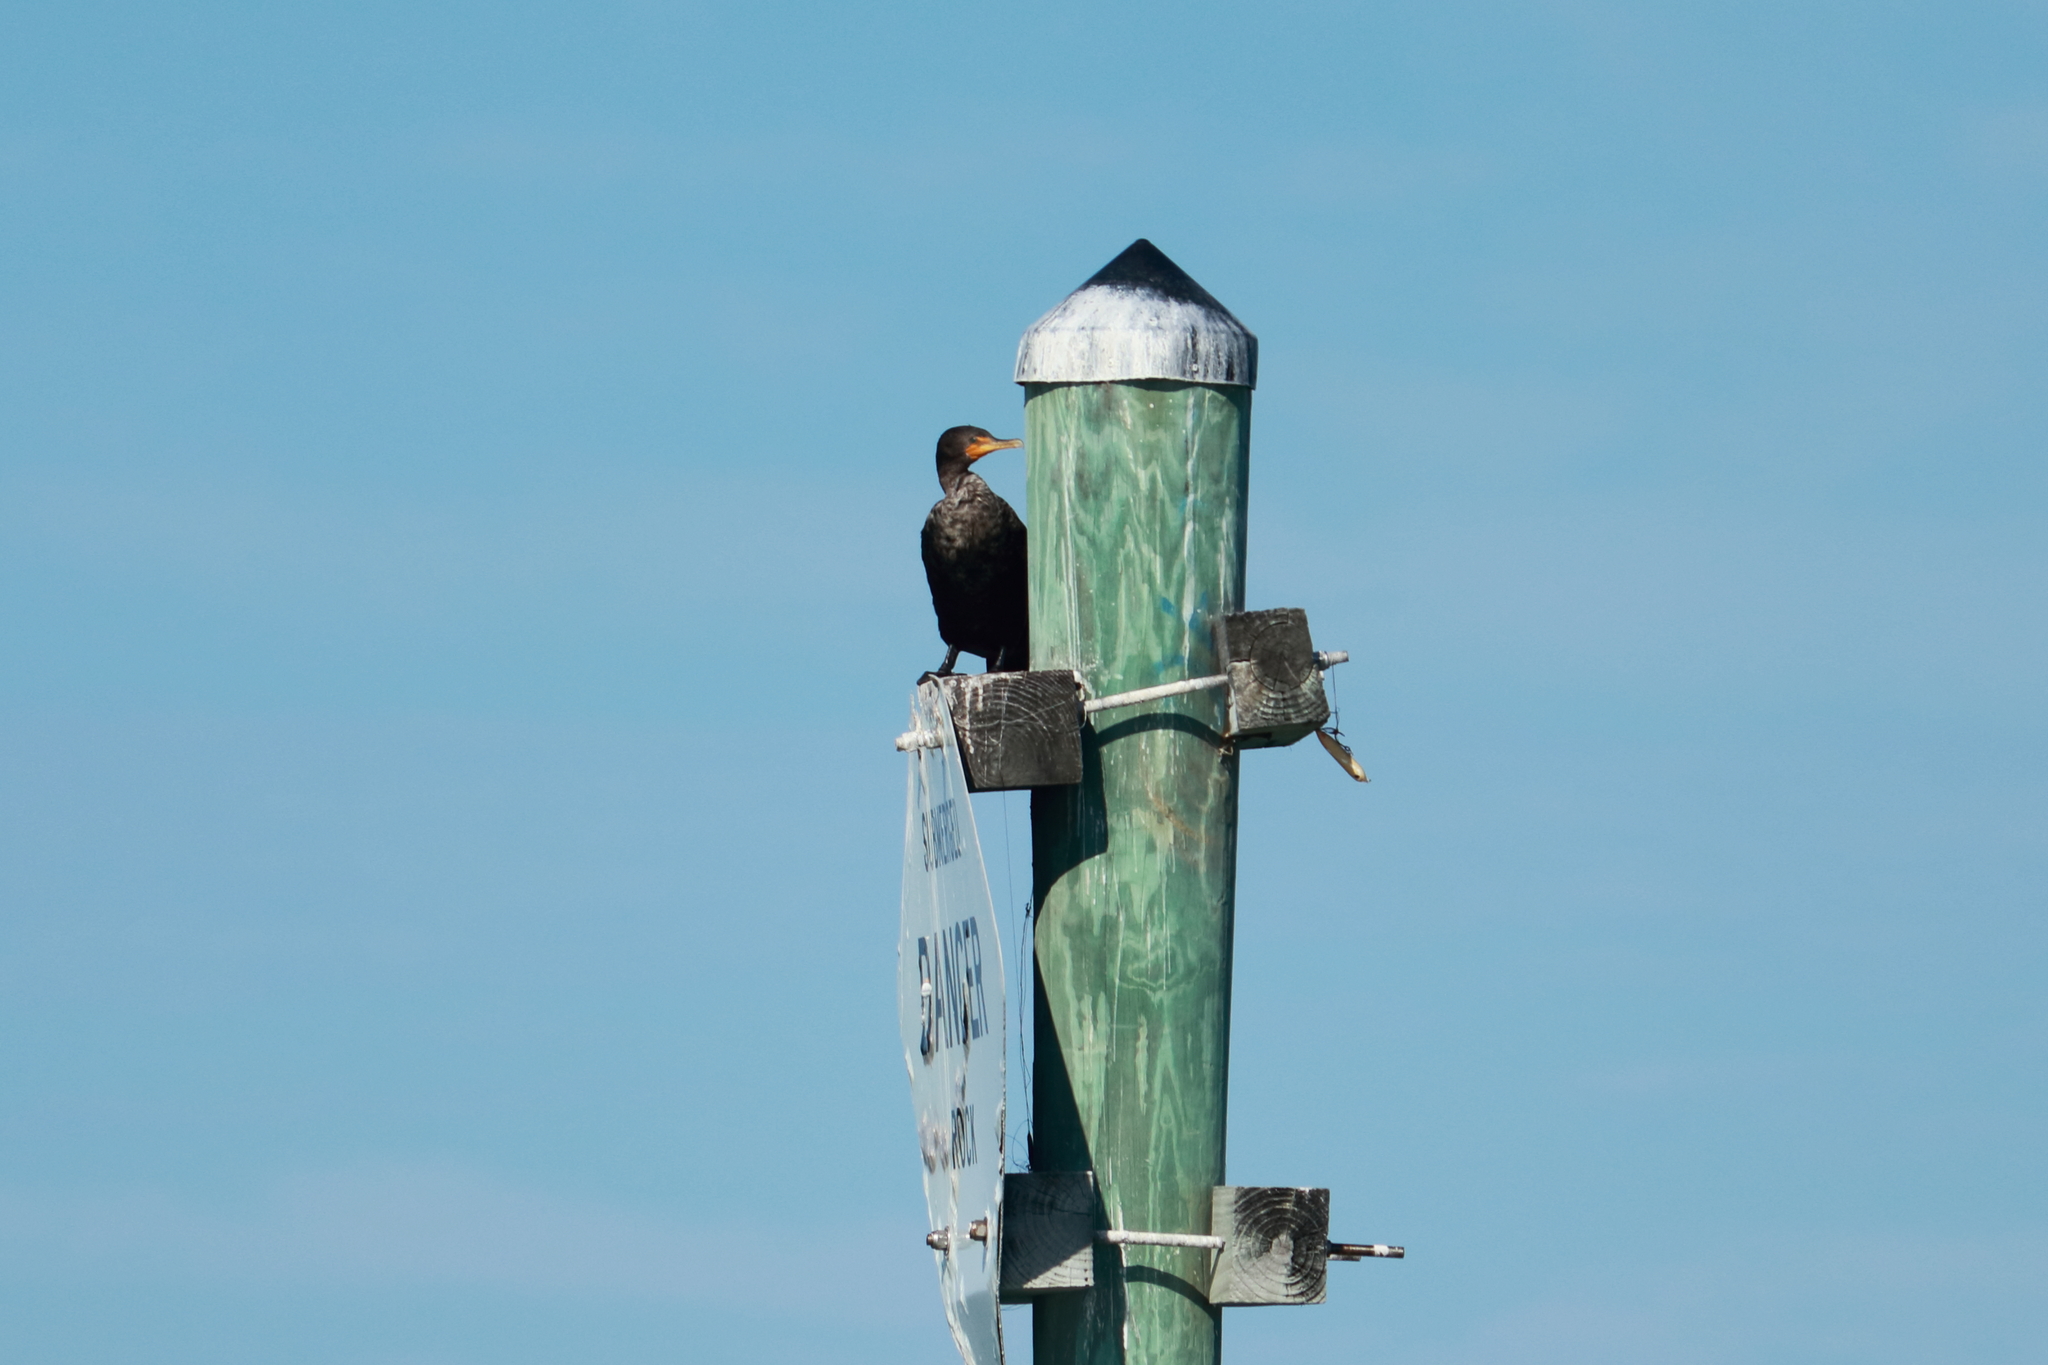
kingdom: Animalia
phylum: Chordata
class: Aves
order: Suliformes
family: Phalacrocoracidae
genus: Phalacrocorax
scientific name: Phalacrocorax auritus
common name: Double-crested cormorant
